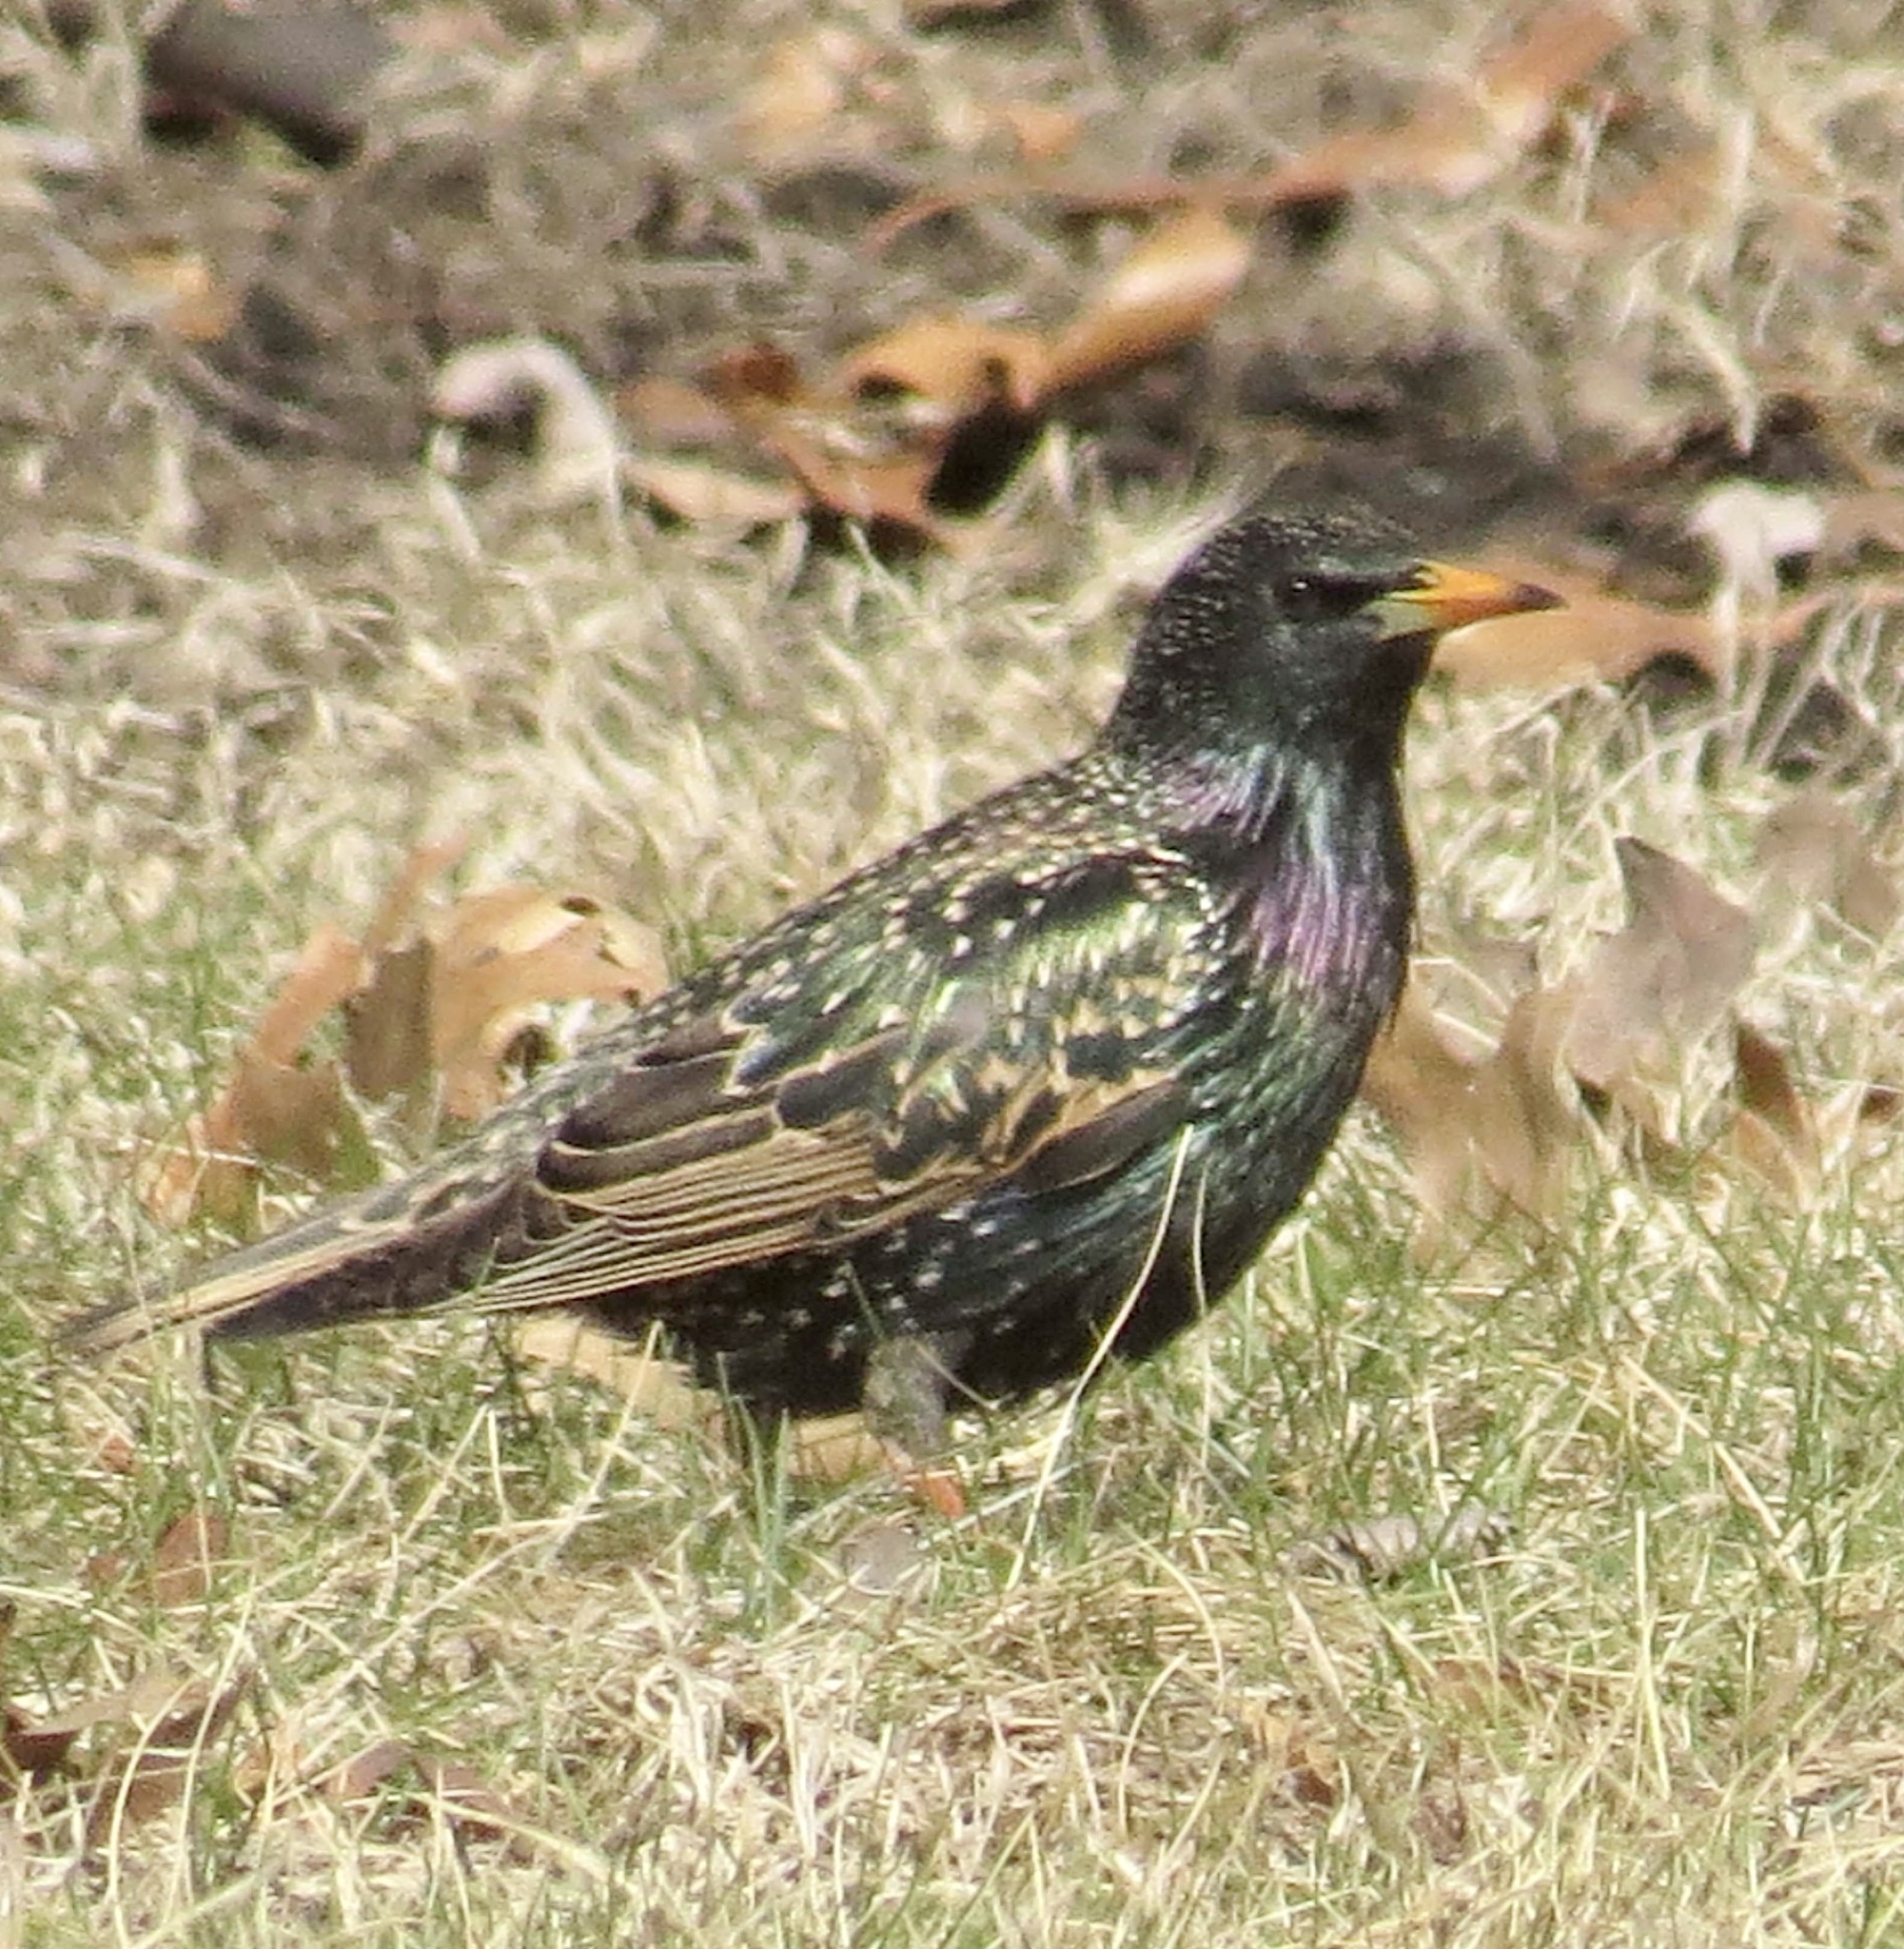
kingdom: Animalia
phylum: Chordata
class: Aves
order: Passeriformes
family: Sturnidae
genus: Sturnus
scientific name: Sturnus vulgaris
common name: Common starling
